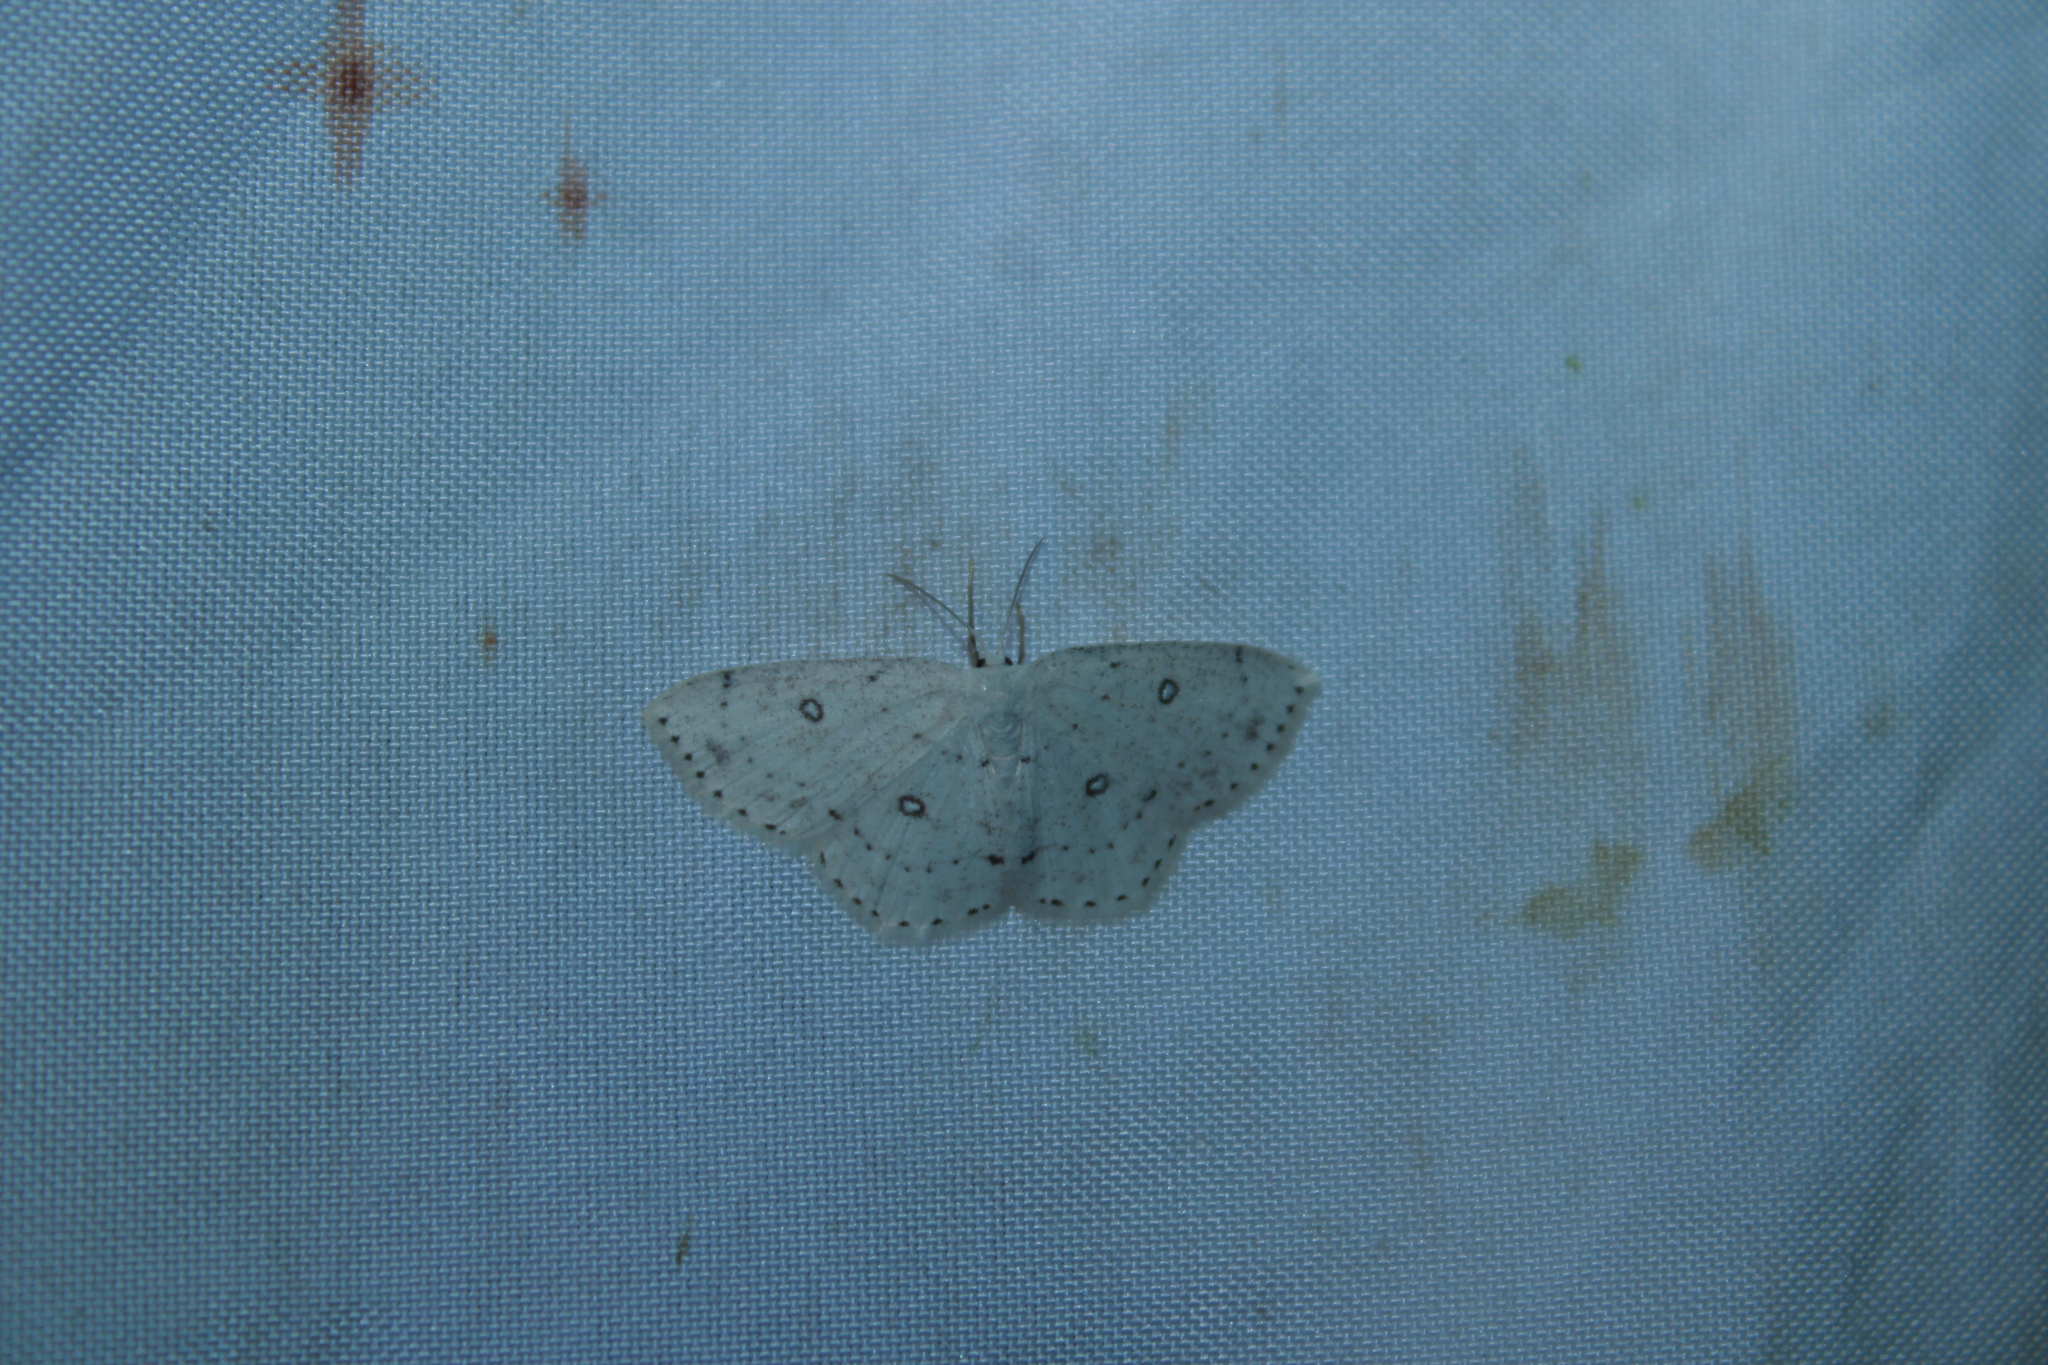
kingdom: Animalia
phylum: Arthropoda
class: Insecta
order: Lepidoptera
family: Geometridae
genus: Cyclophora
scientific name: Cyclophora pendulinaria
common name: Sweet fern geometer
